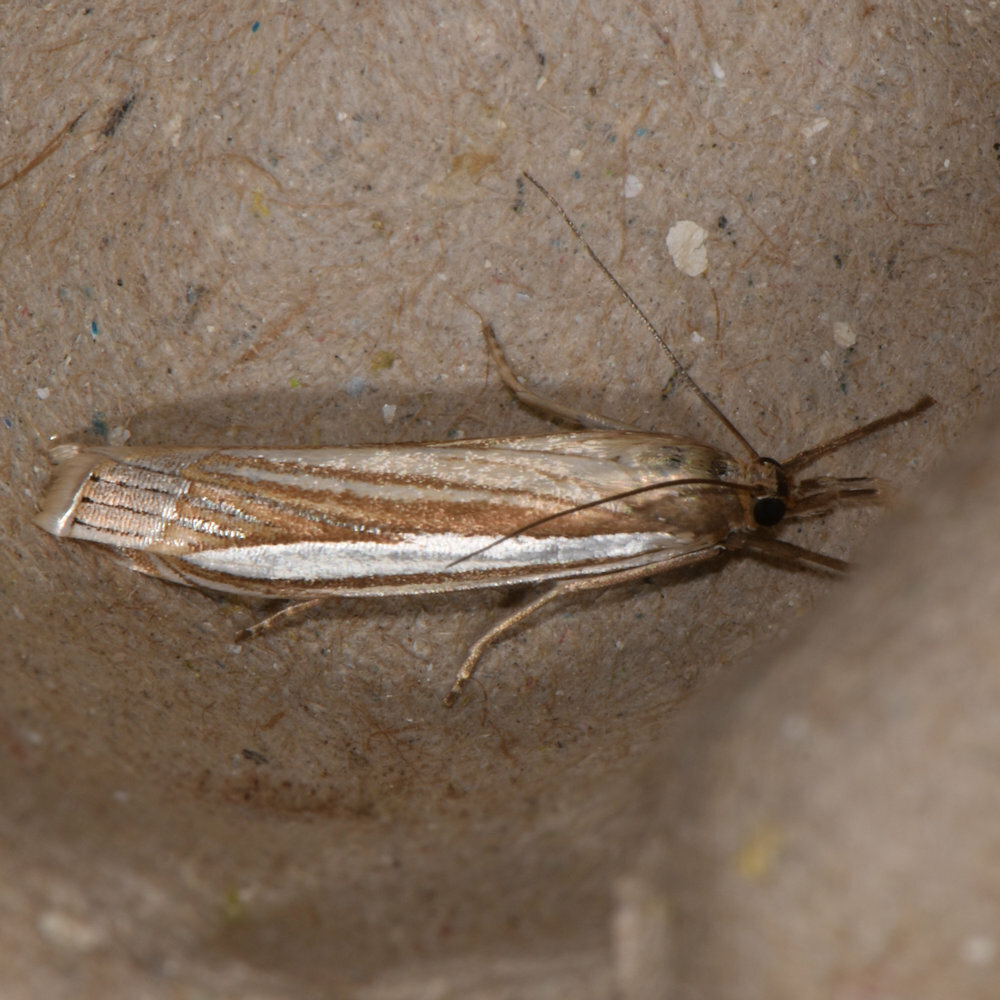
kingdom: Animalia
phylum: Arthropoda
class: Insecta
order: Lepidoptera
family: Crambidae
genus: Crambus
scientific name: Crambus laqueatellus
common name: Eastern grass-veneer
